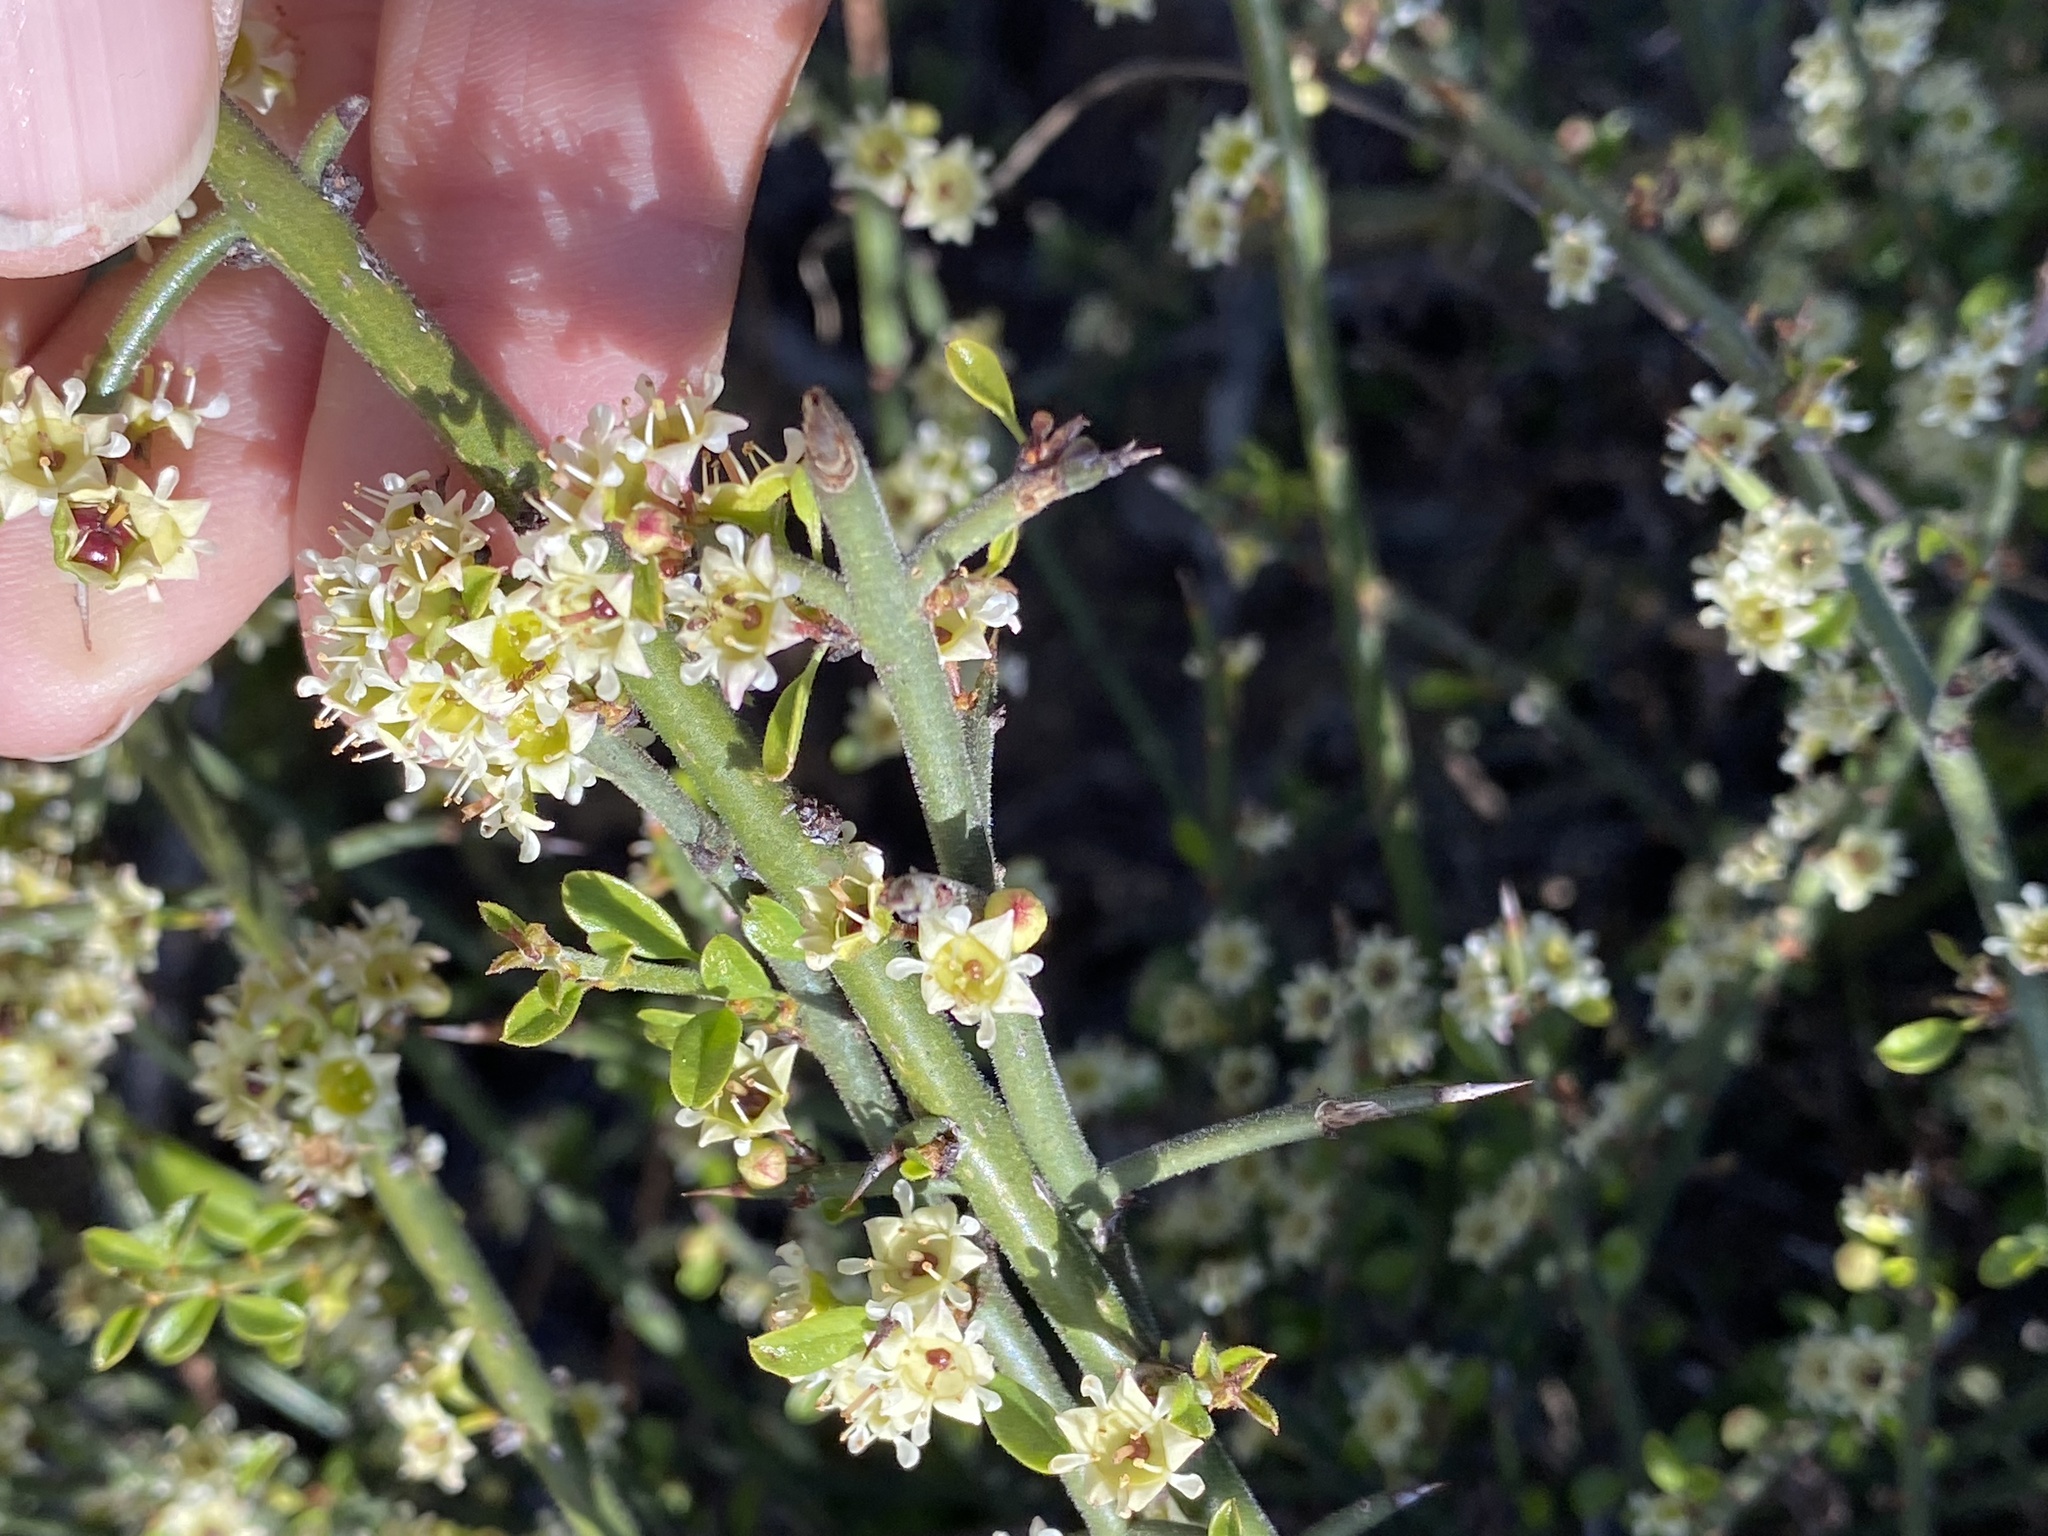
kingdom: Plantae
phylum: Tracheophyta
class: Magnoliopsida
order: Rosales
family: Rhamnaceae
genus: Adolphia
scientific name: Adolphia californica
